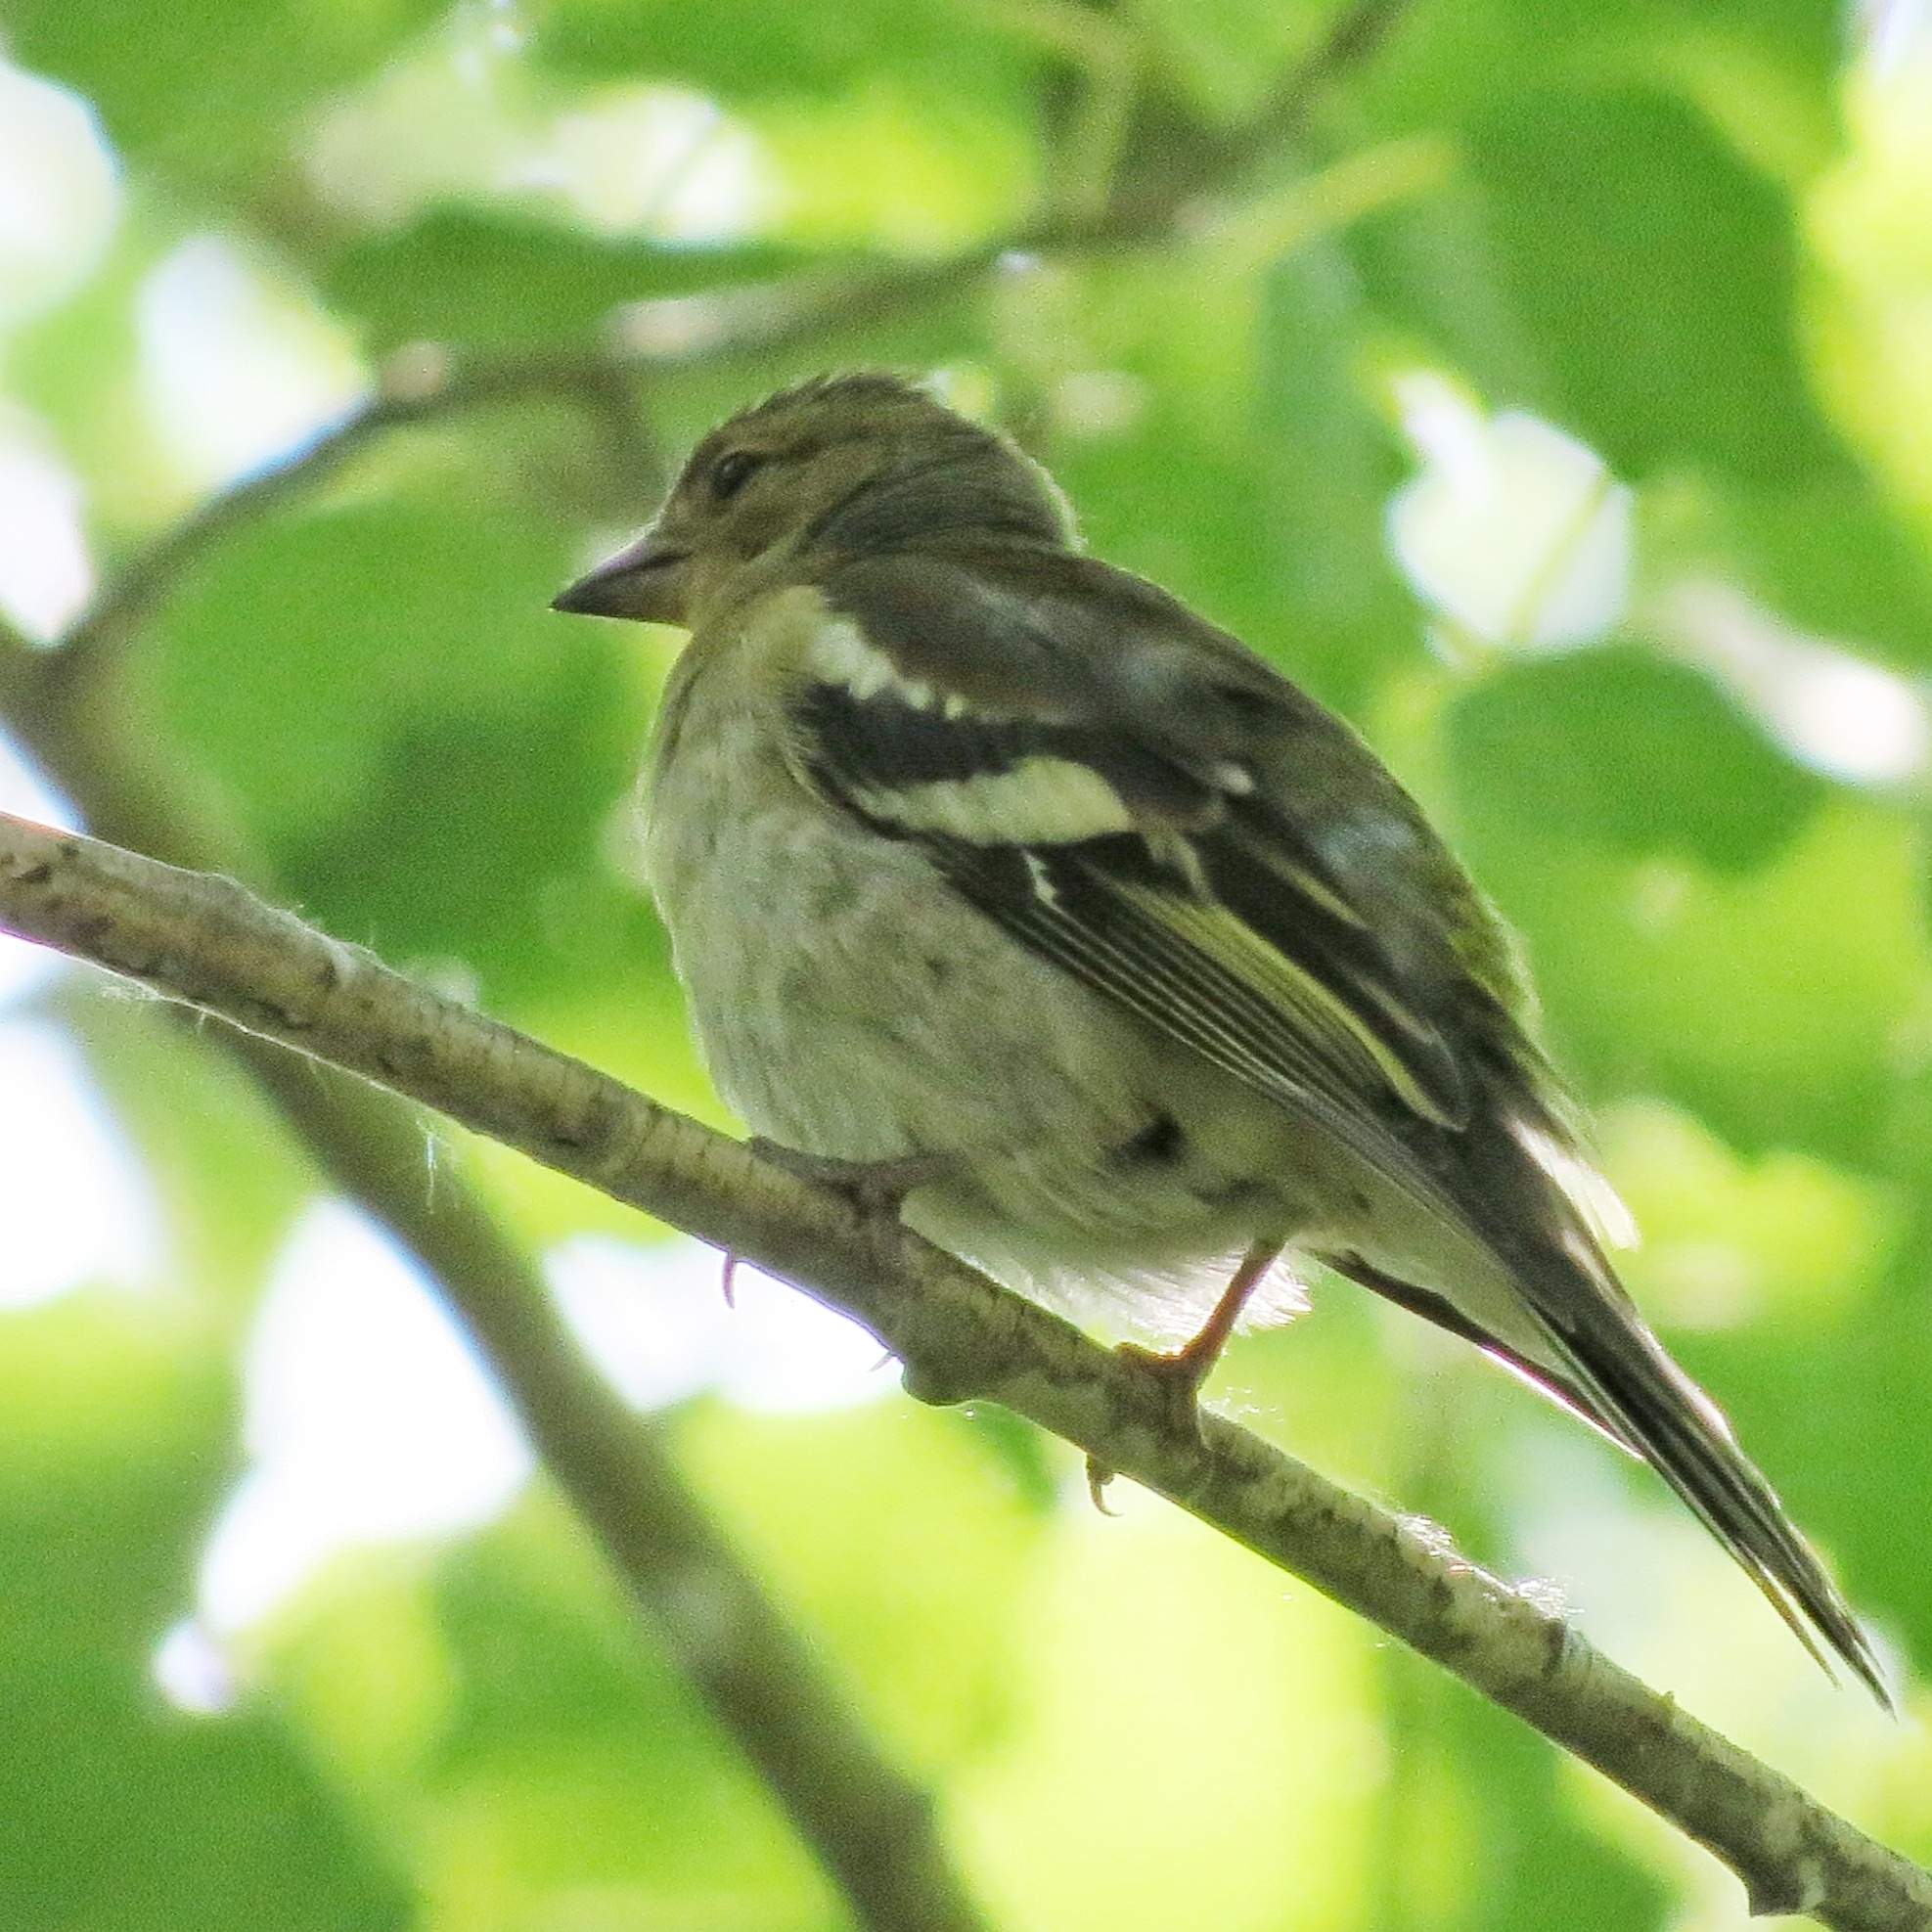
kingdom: Animalia
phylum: Chordata
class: Aves
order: Passeriformes
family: Fringillidae
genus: Fringilla
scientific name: Fringilla coelebs
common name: Common chaffinch
